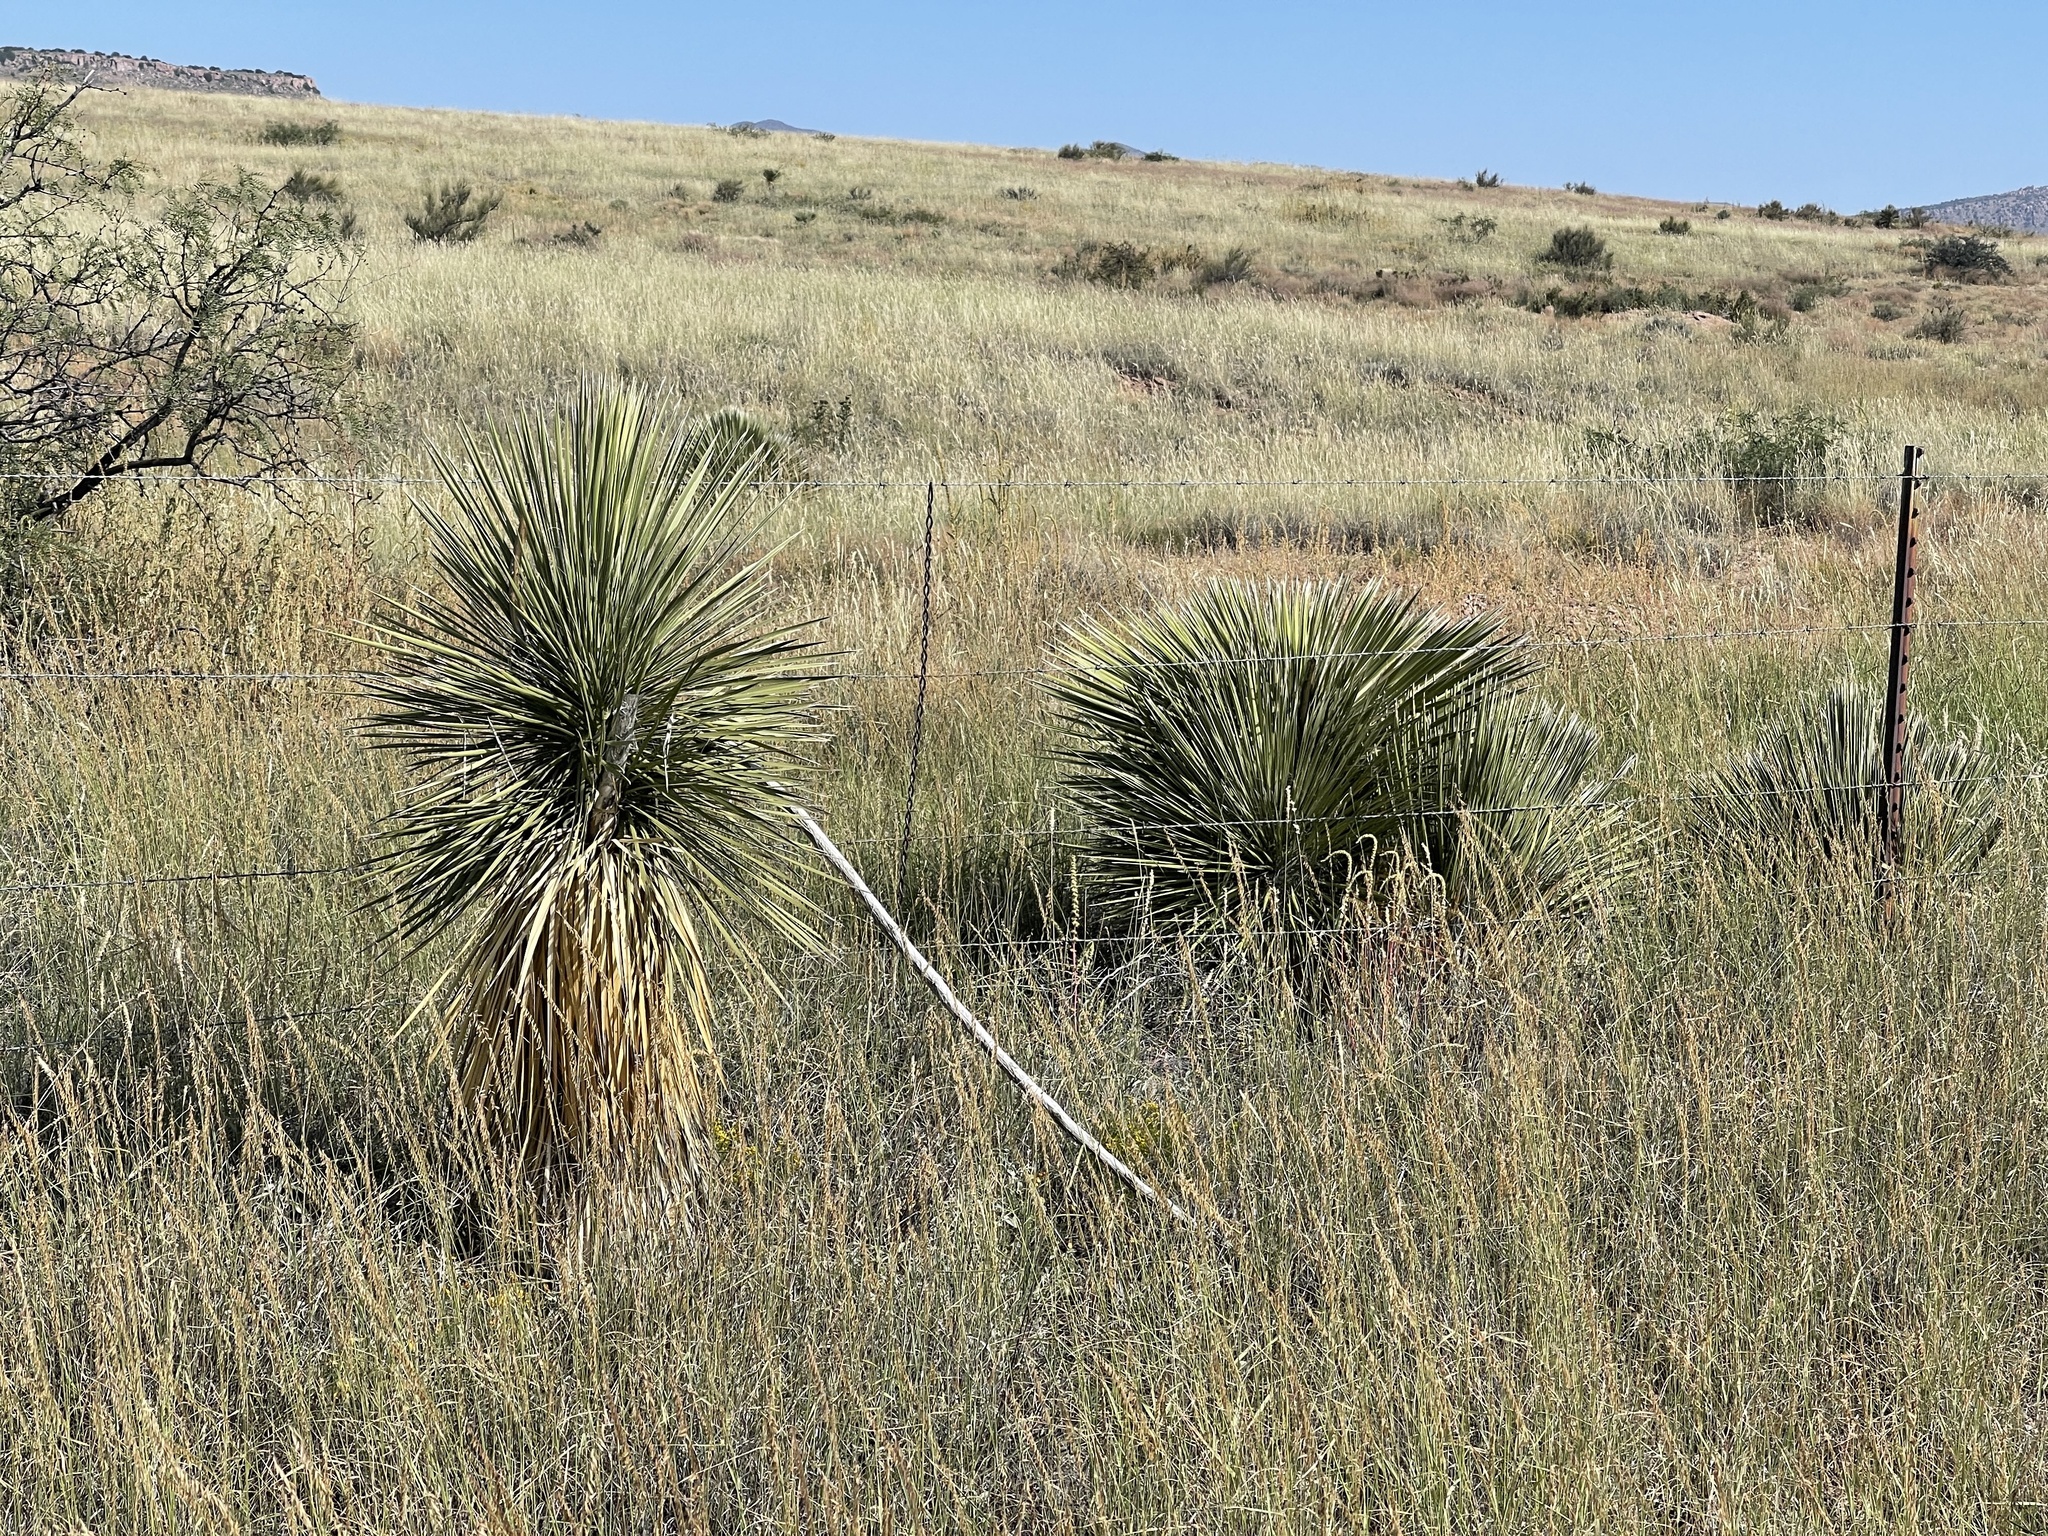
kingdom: Plantae
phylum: Tracheophyta
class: Liliopsida
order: Asparagales
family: Asparagaceae
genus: Yucca
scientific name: Yucca elata
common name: Palmella
